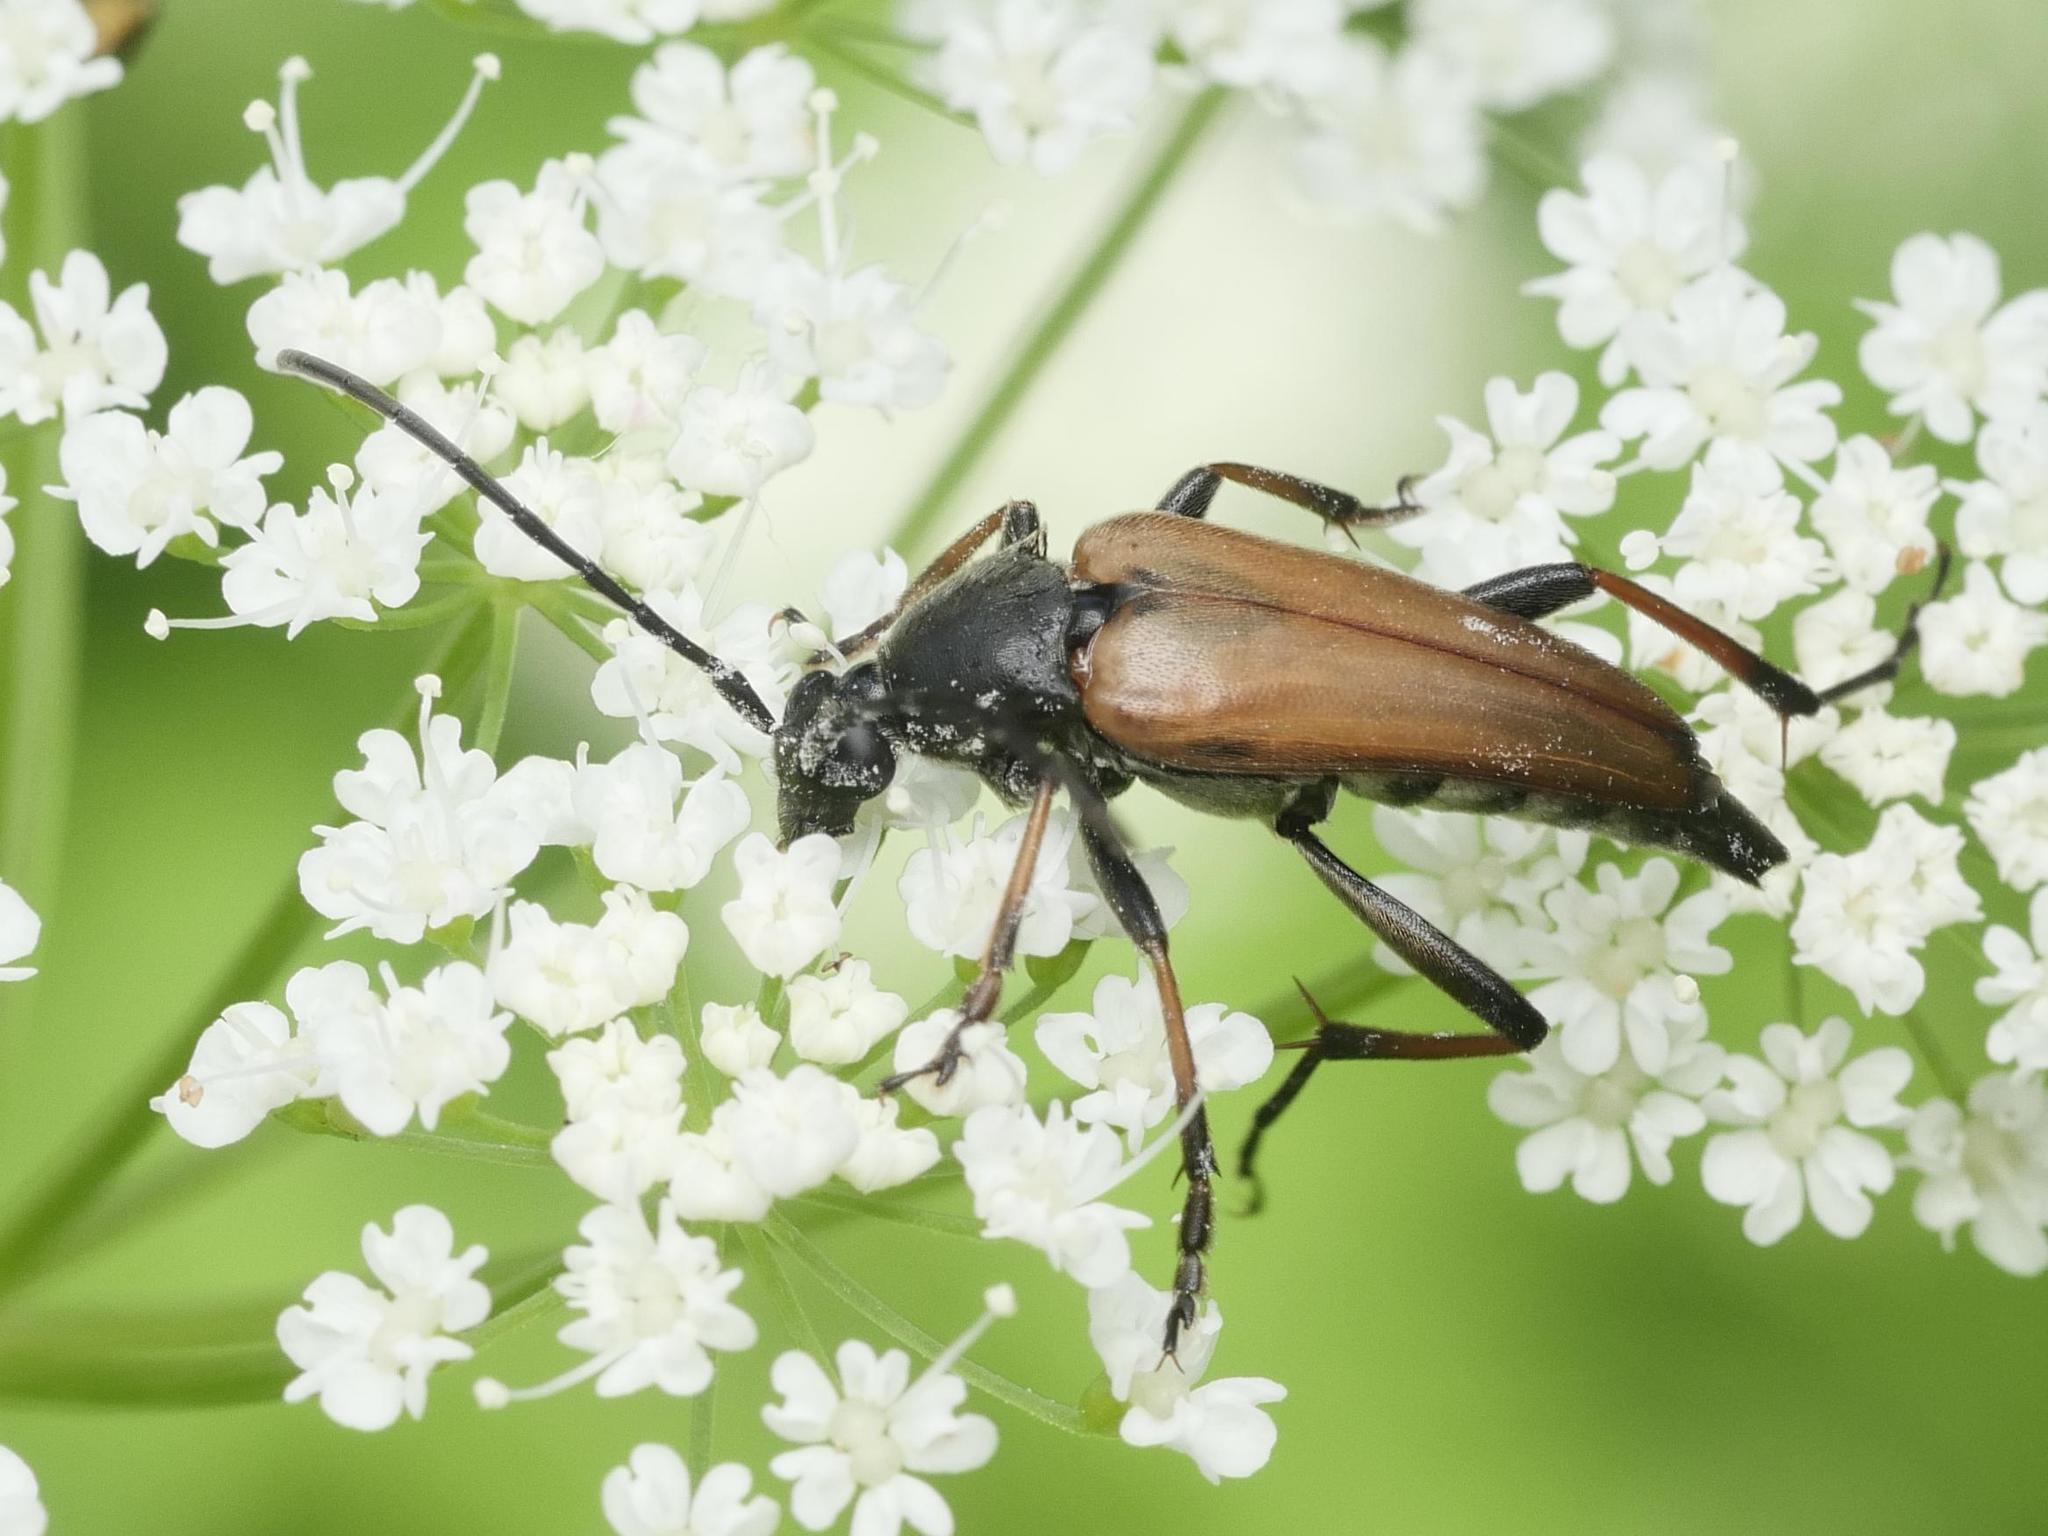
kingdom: Animalia
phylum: Arthropoda
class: Insecta
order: Coleoptera
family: Cerambycidae
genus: Etorofus
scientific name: Etorofus pubescens
